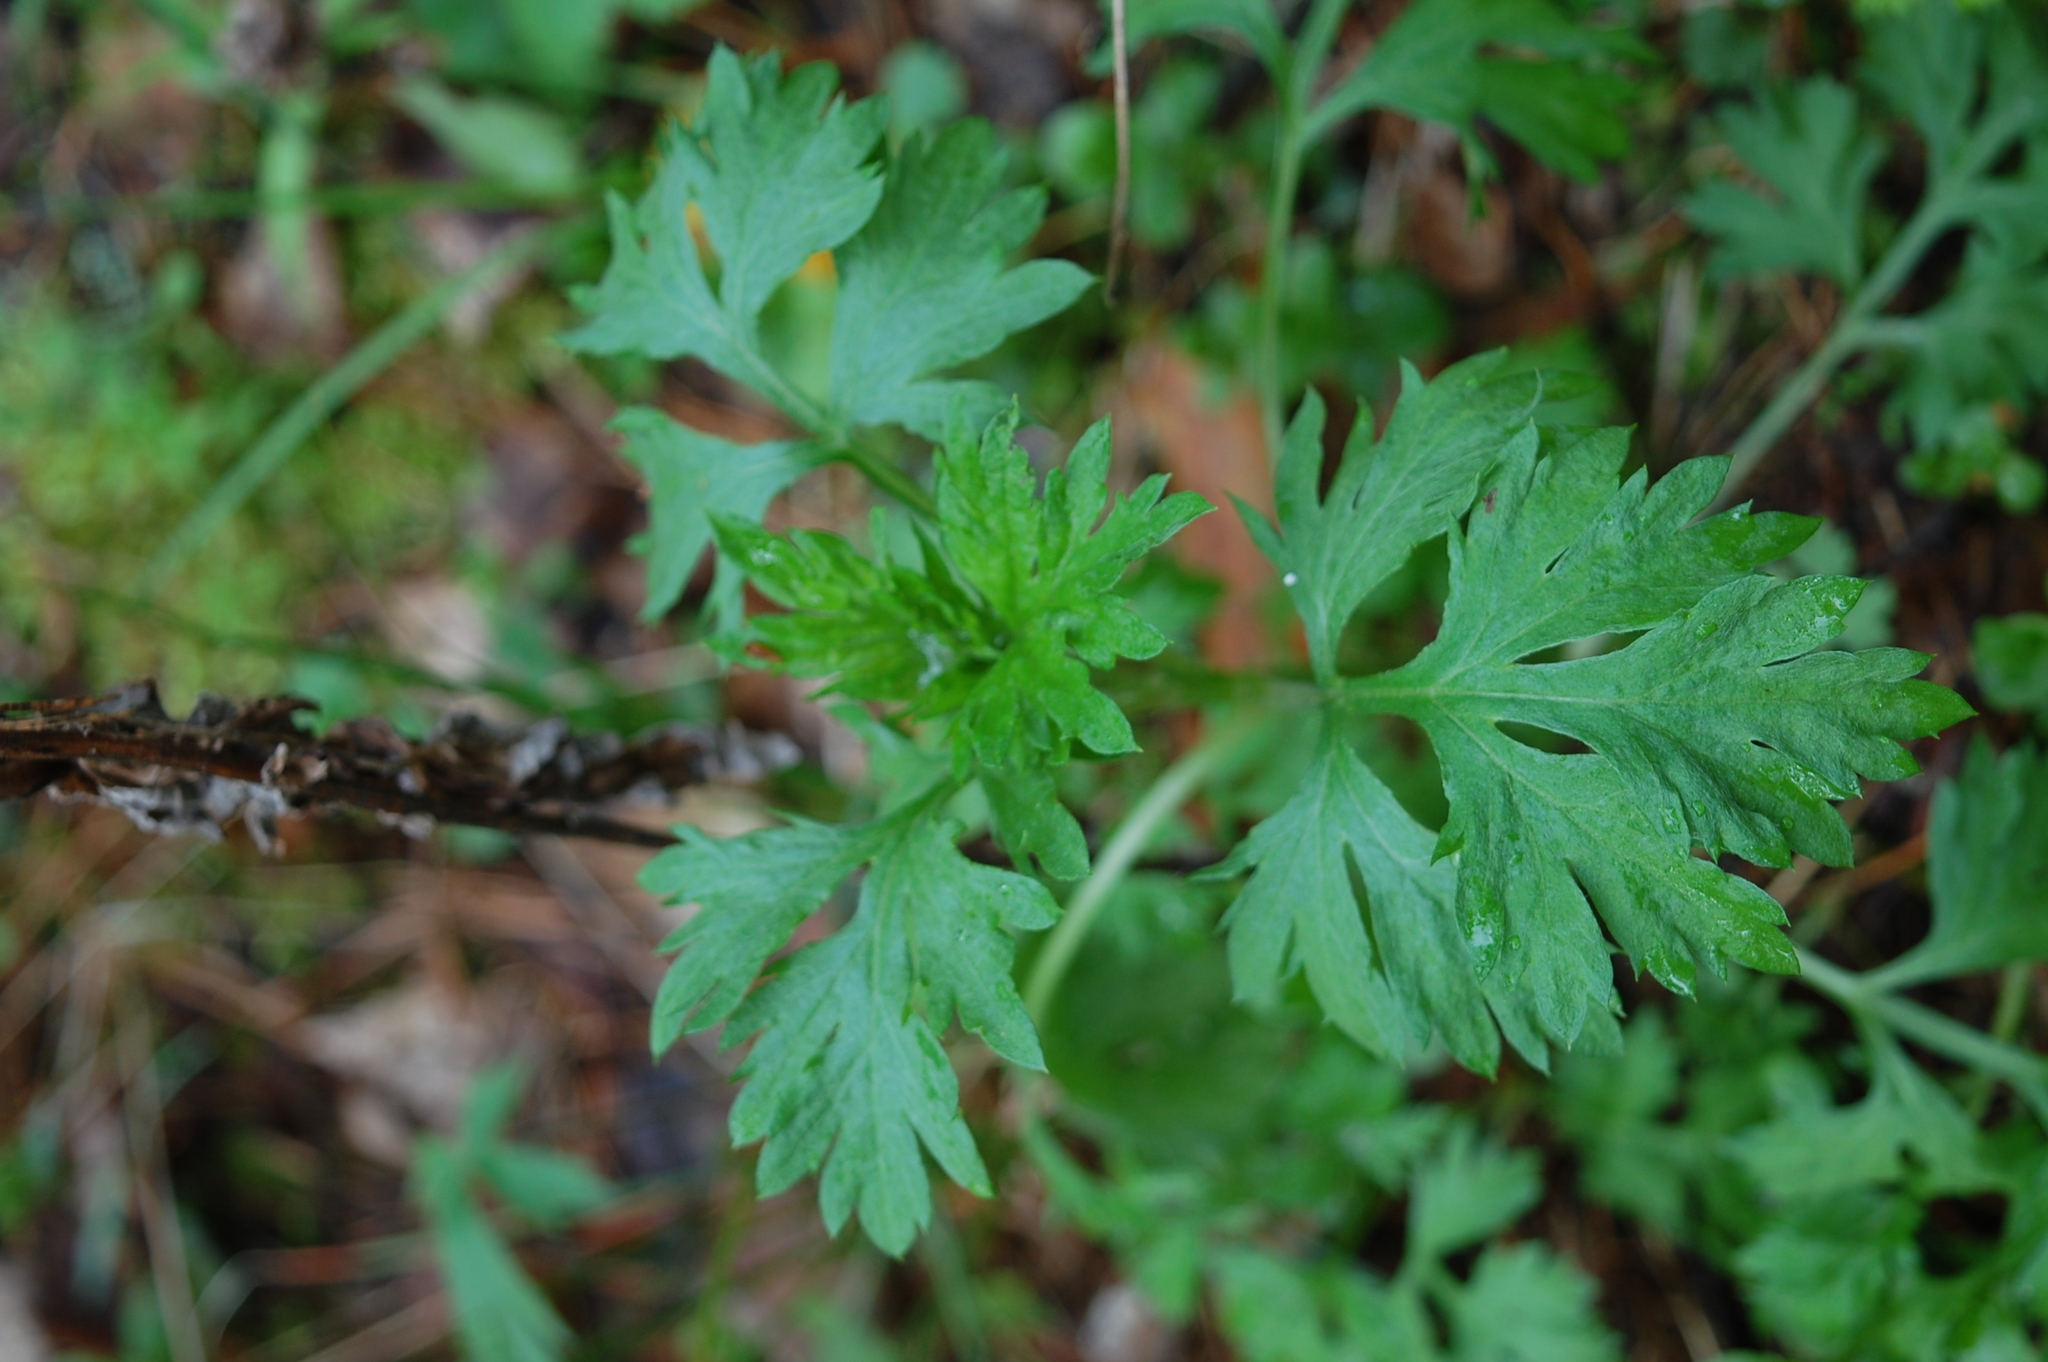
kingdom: Plantae
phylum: Tracheophyta
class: Magnoliopsida
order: Asterales
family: Asteraceae
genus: Artemisia
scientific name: Artemisia vulgaris
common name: Mugwort
